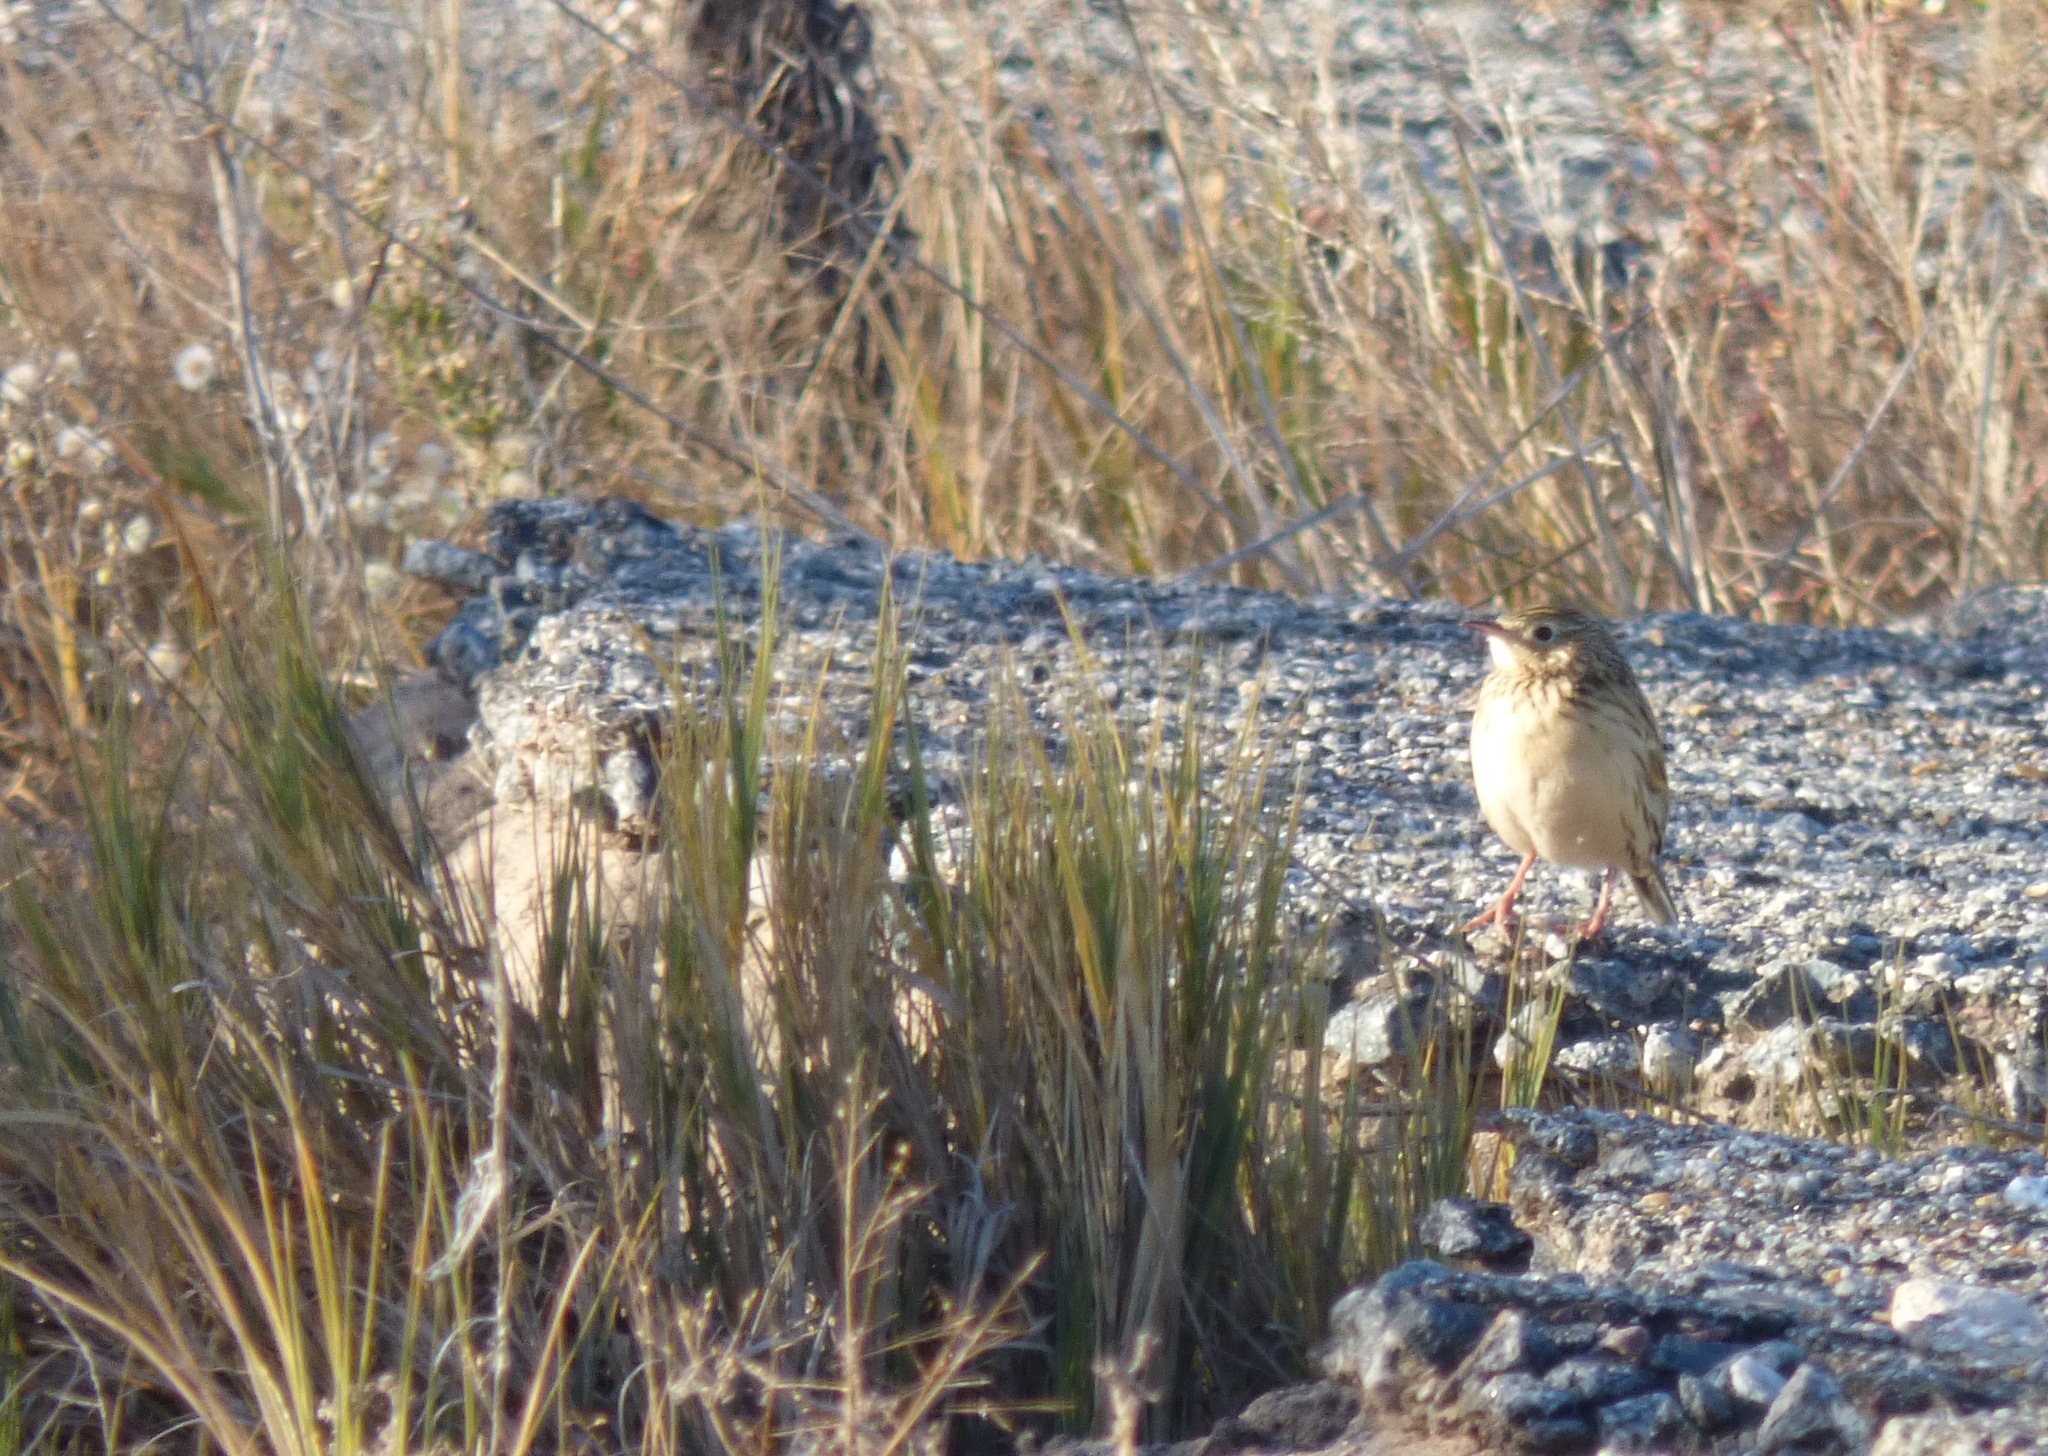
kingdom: Animalia
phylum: Chordata
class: Aves
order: Passeriformes
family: Motacillidae
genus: Anthus
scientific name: Anthus hellmayri
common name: Hellmayr's pipit
